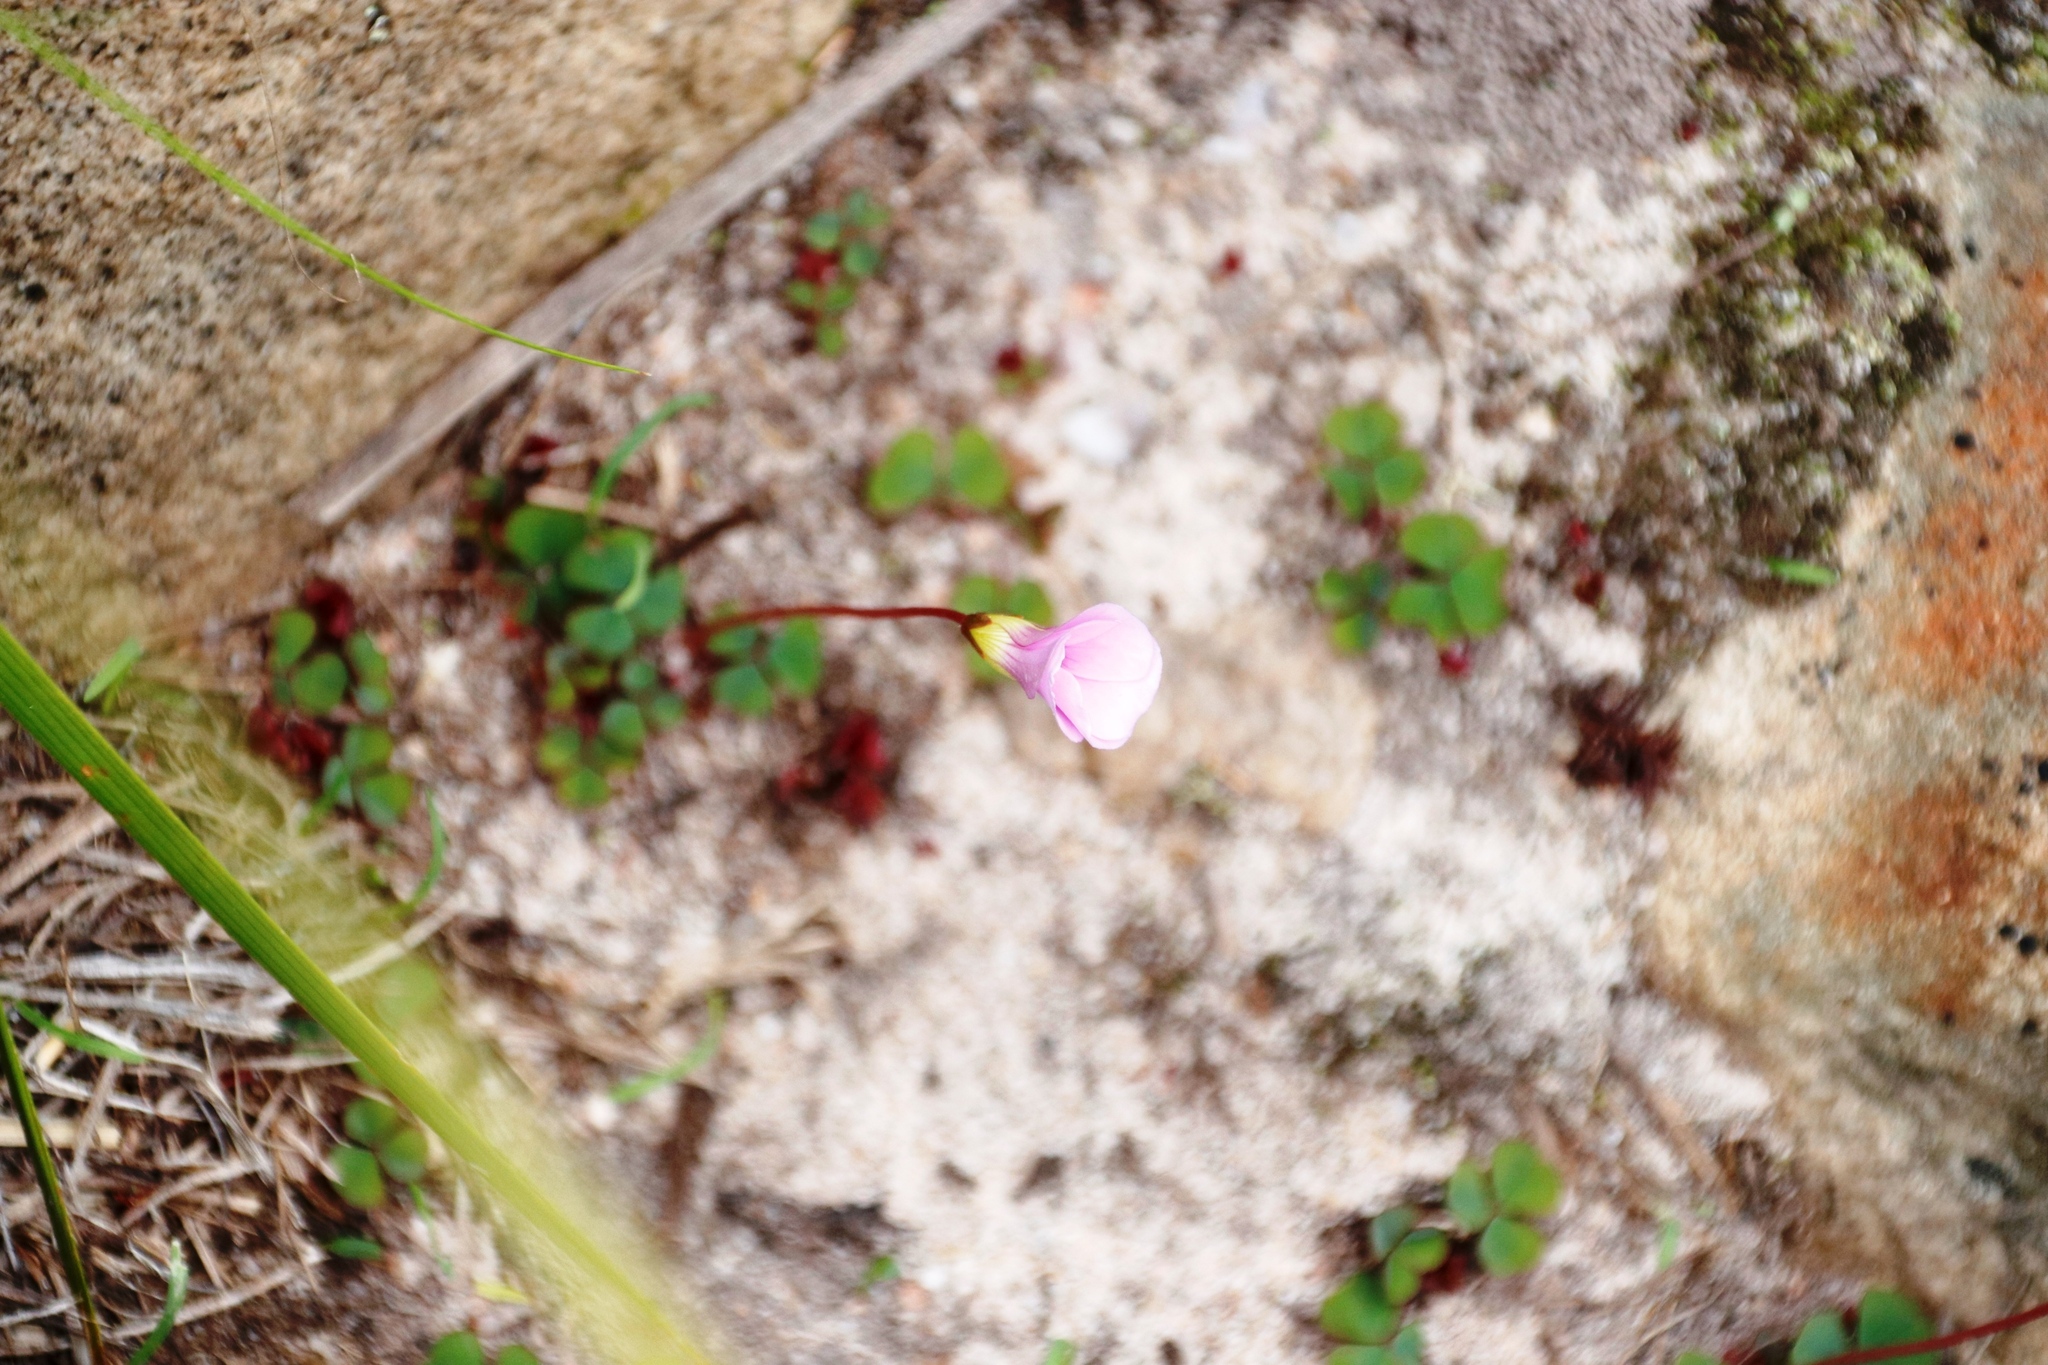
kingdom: Plantae
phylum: Tracheophyta
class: Magnoliopsida
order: Oxalidales
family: Oxalidaceae
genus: Oxalis
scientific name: Oxalis commutata
